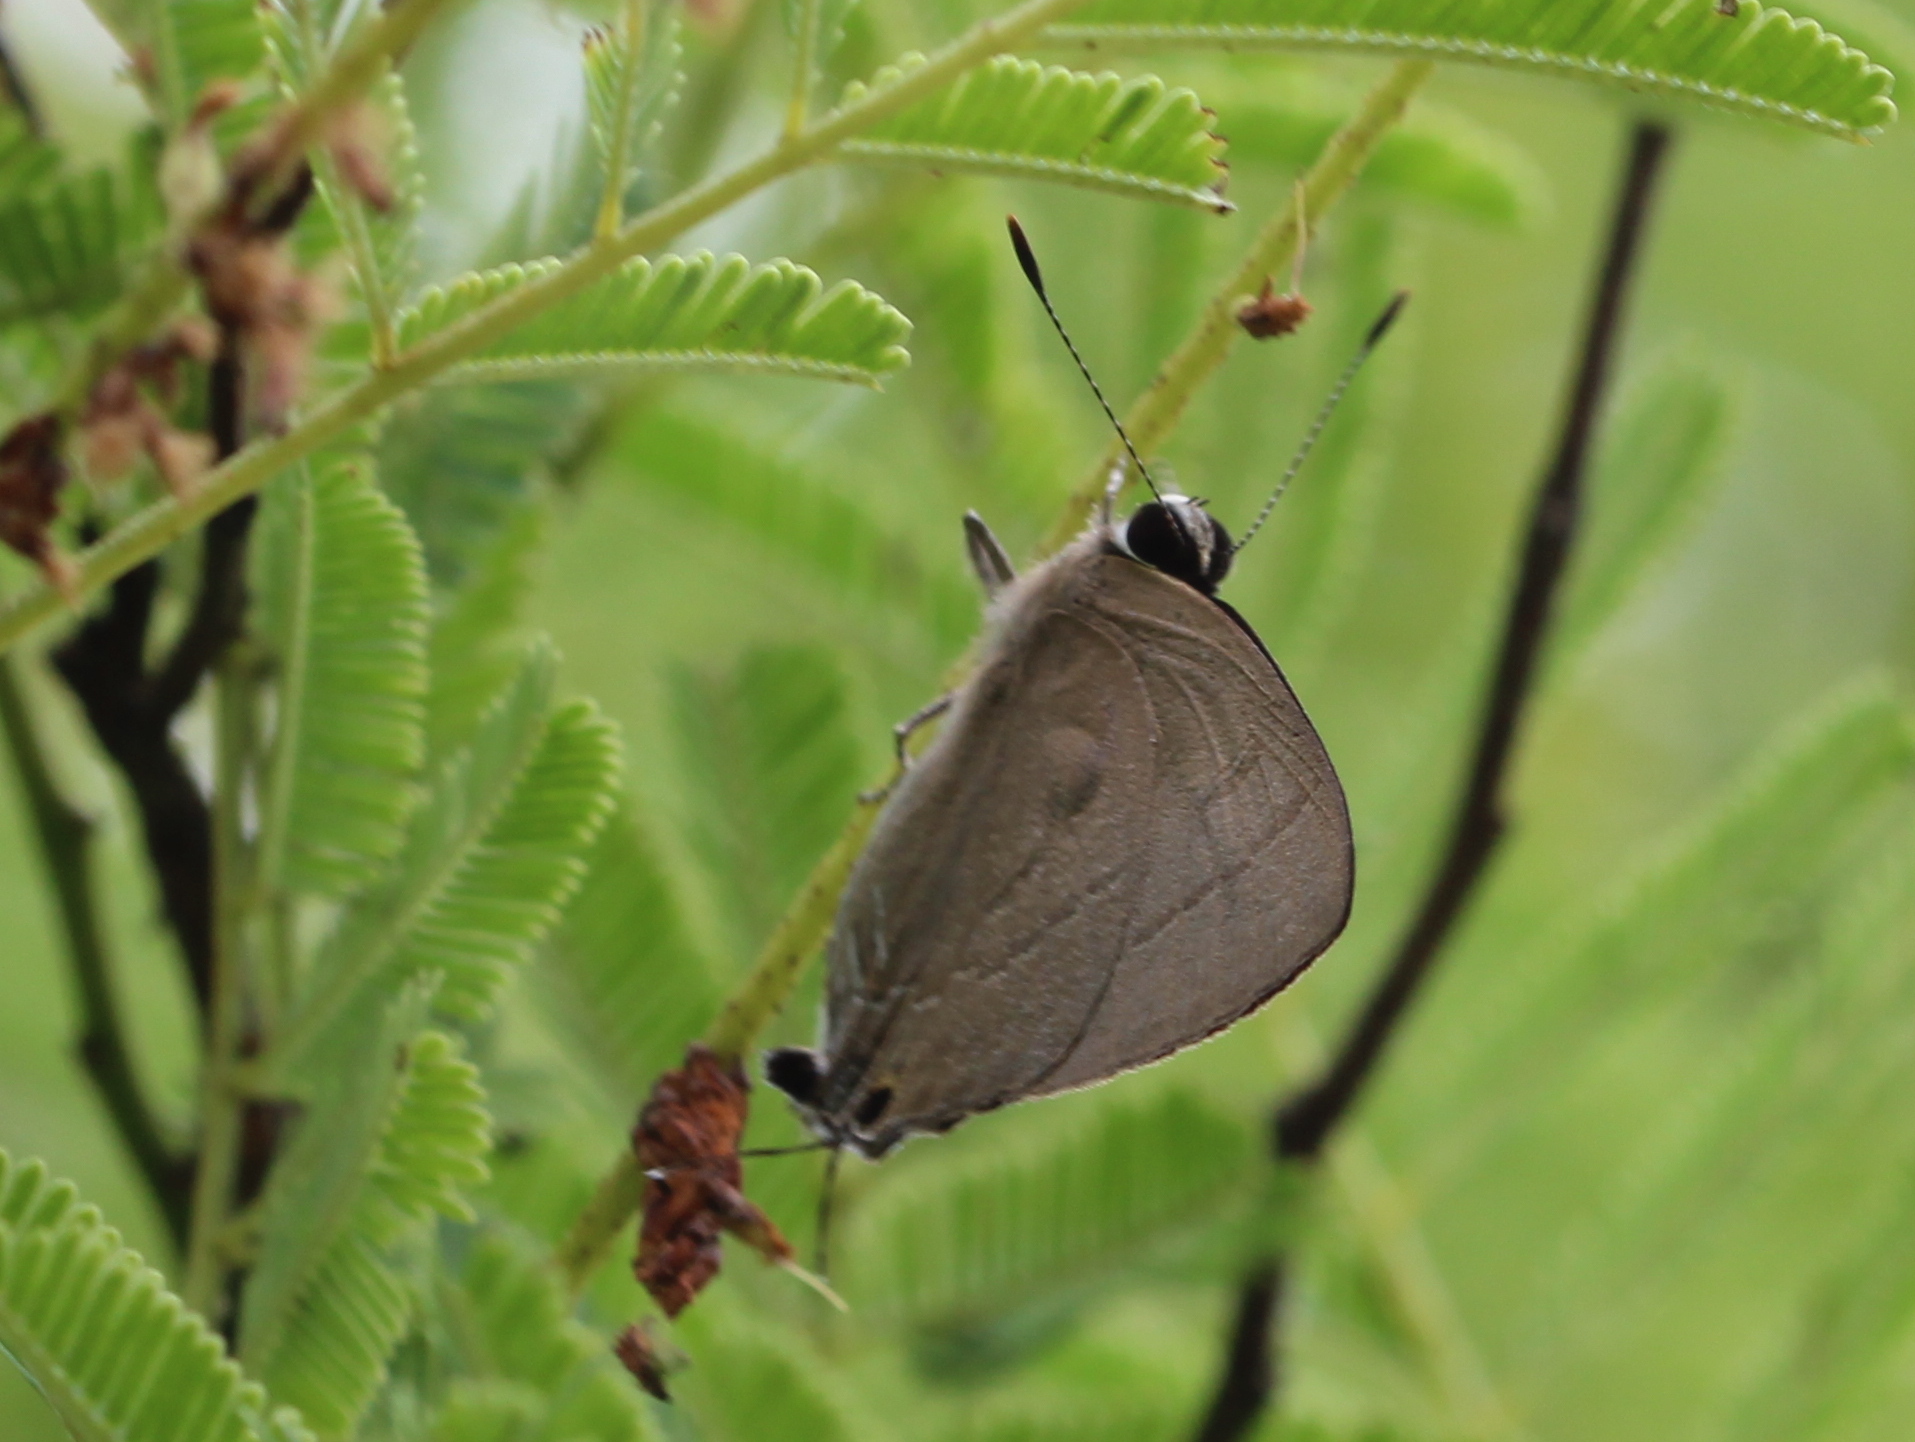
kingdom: Animalia
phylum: Arthropoda
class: Insecta
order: Lepidoptera
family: Lycaenidae
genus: Rapala
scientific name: Rapala manea
